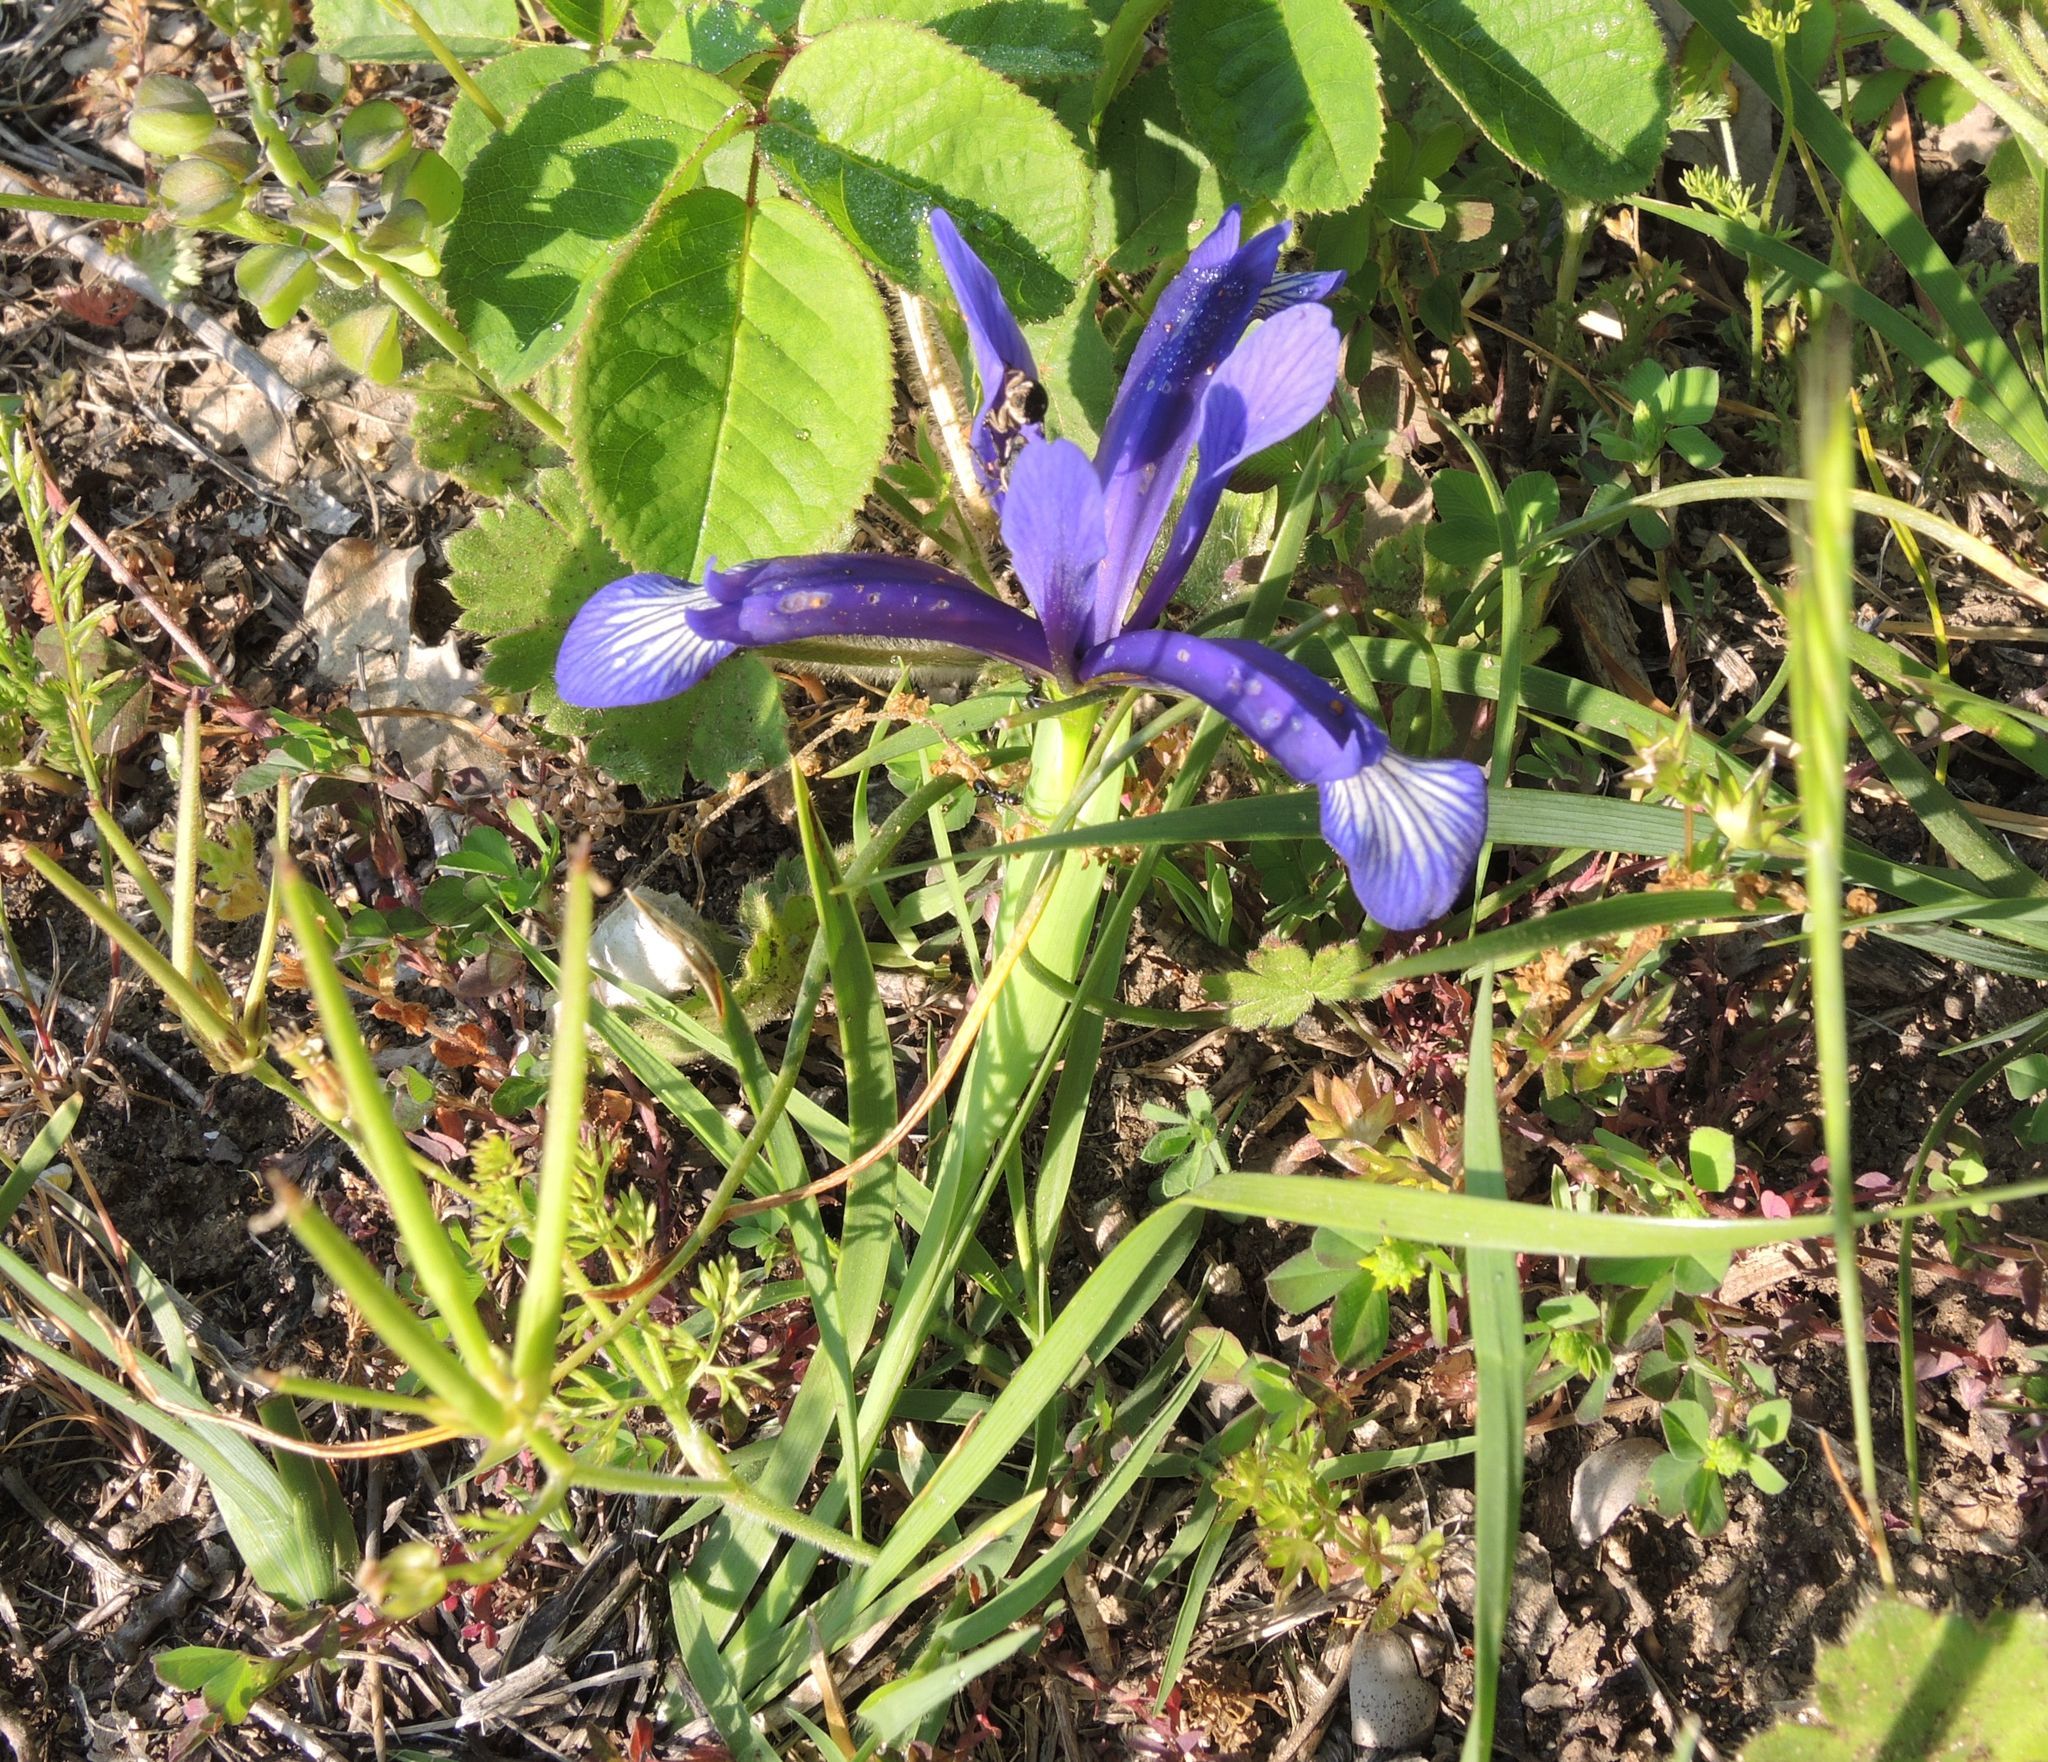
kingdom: Plantae
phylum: Tracheophyta
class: Liliopsida
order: Asparagales
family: Iridaceae
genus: Iris
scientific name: Iris sintenisii
